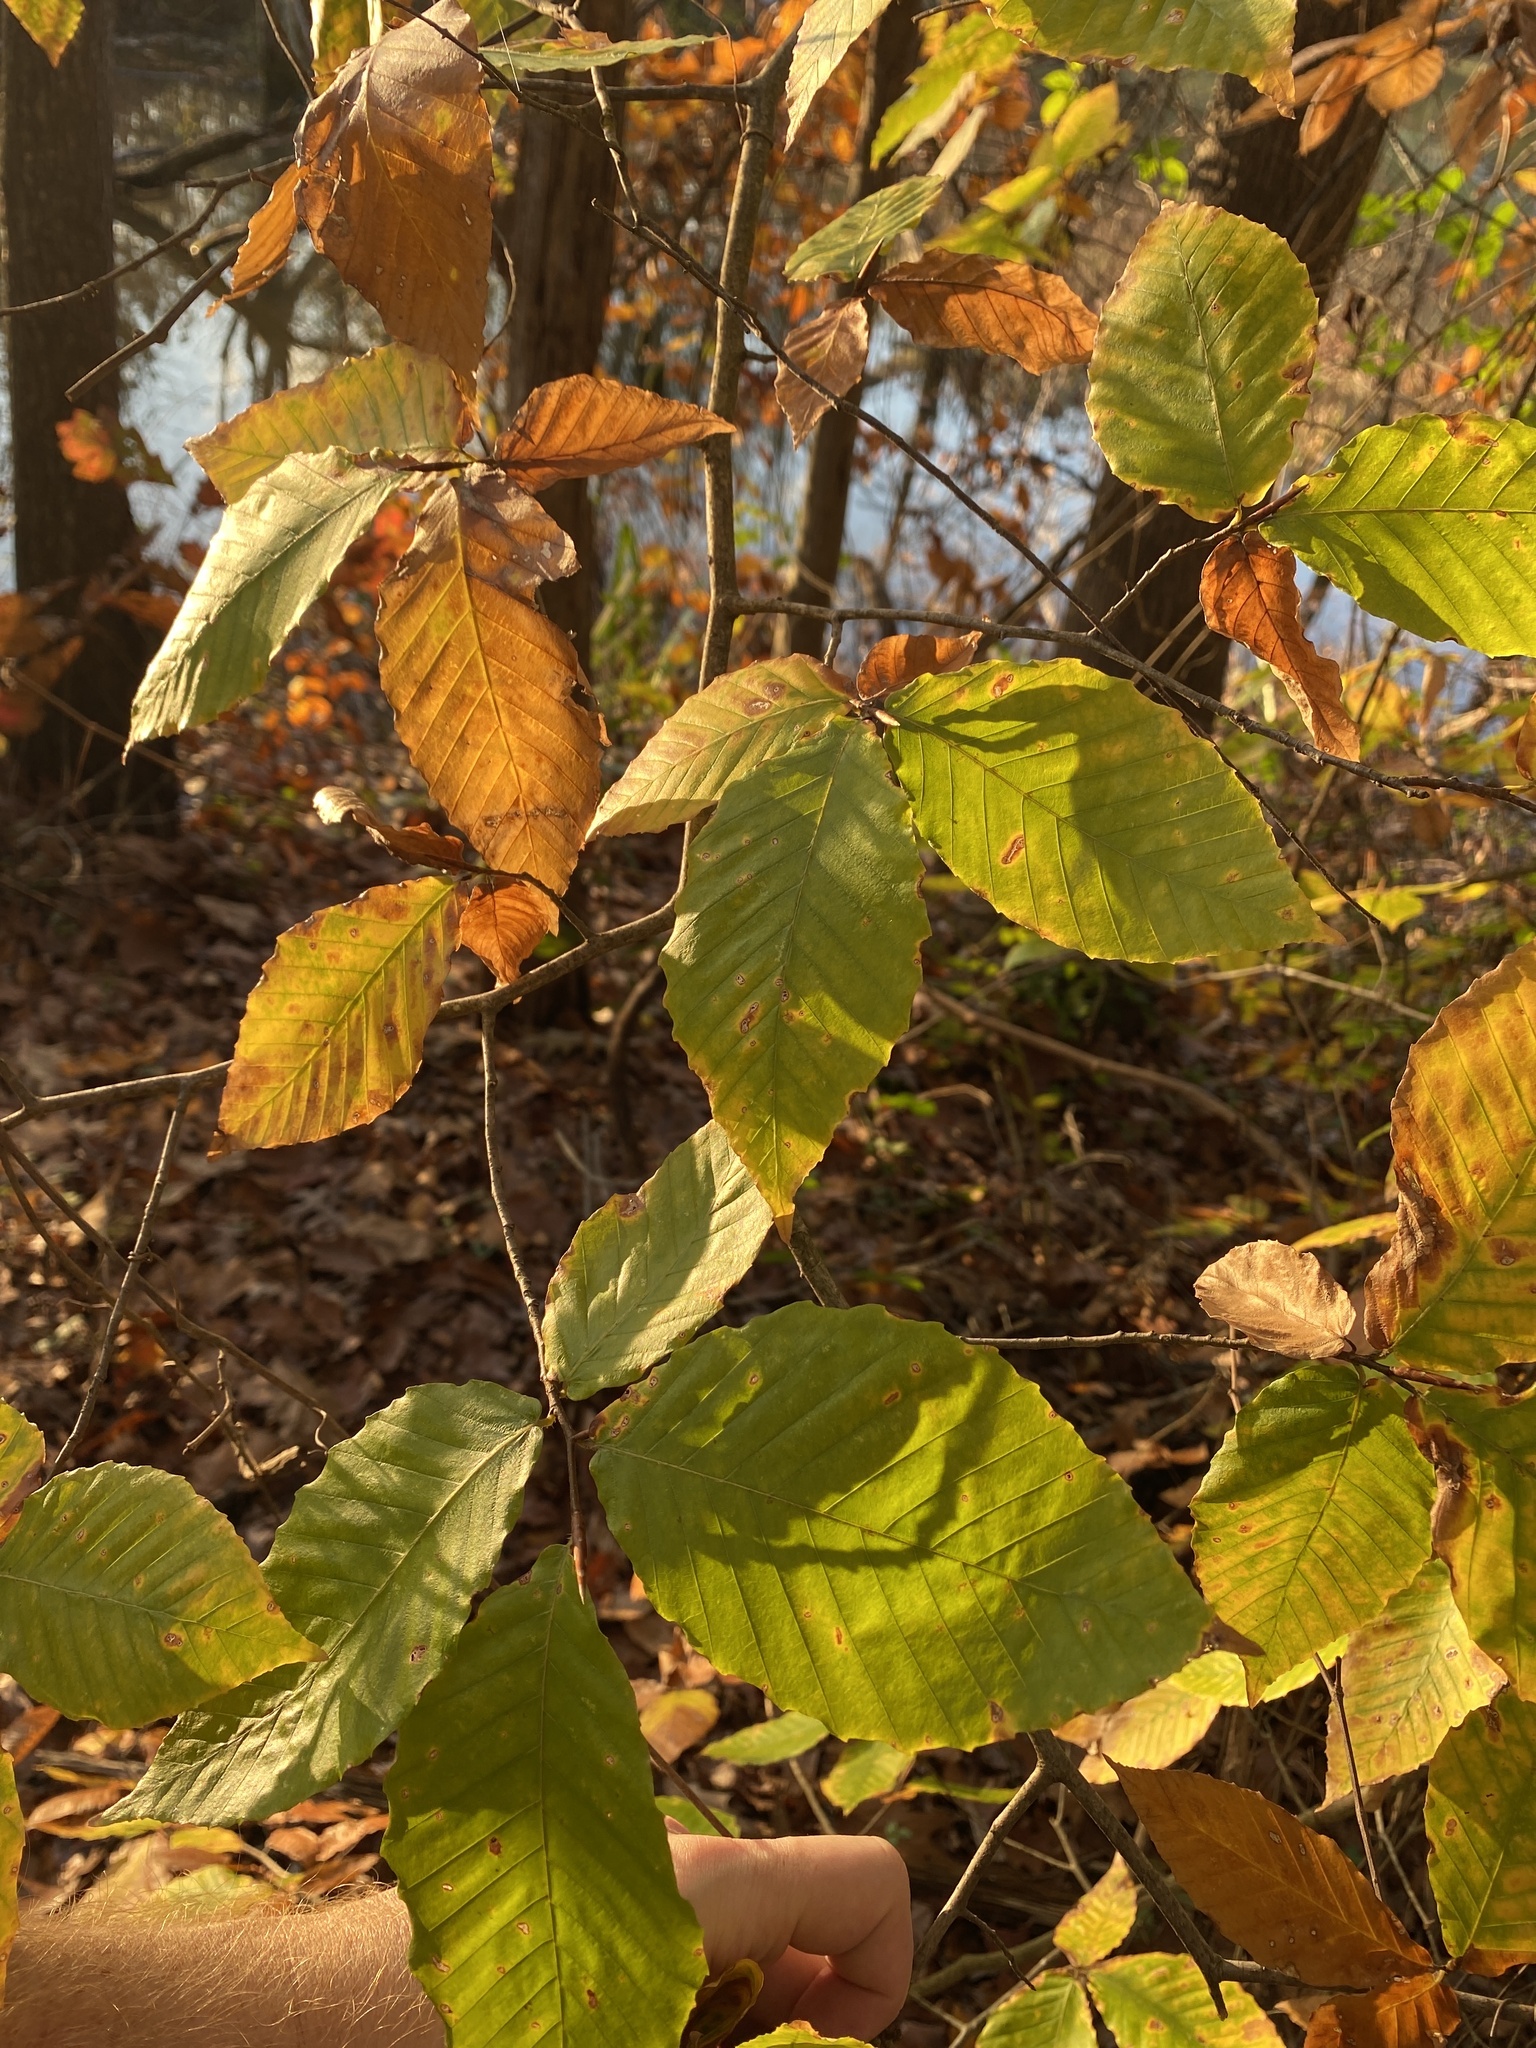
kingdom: Plantae
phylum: Tracheophyta
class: Magnoliopsida
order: Fagales
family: Fagaceae
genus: Fagus
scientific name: Fagus grandifolia
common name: American beech
